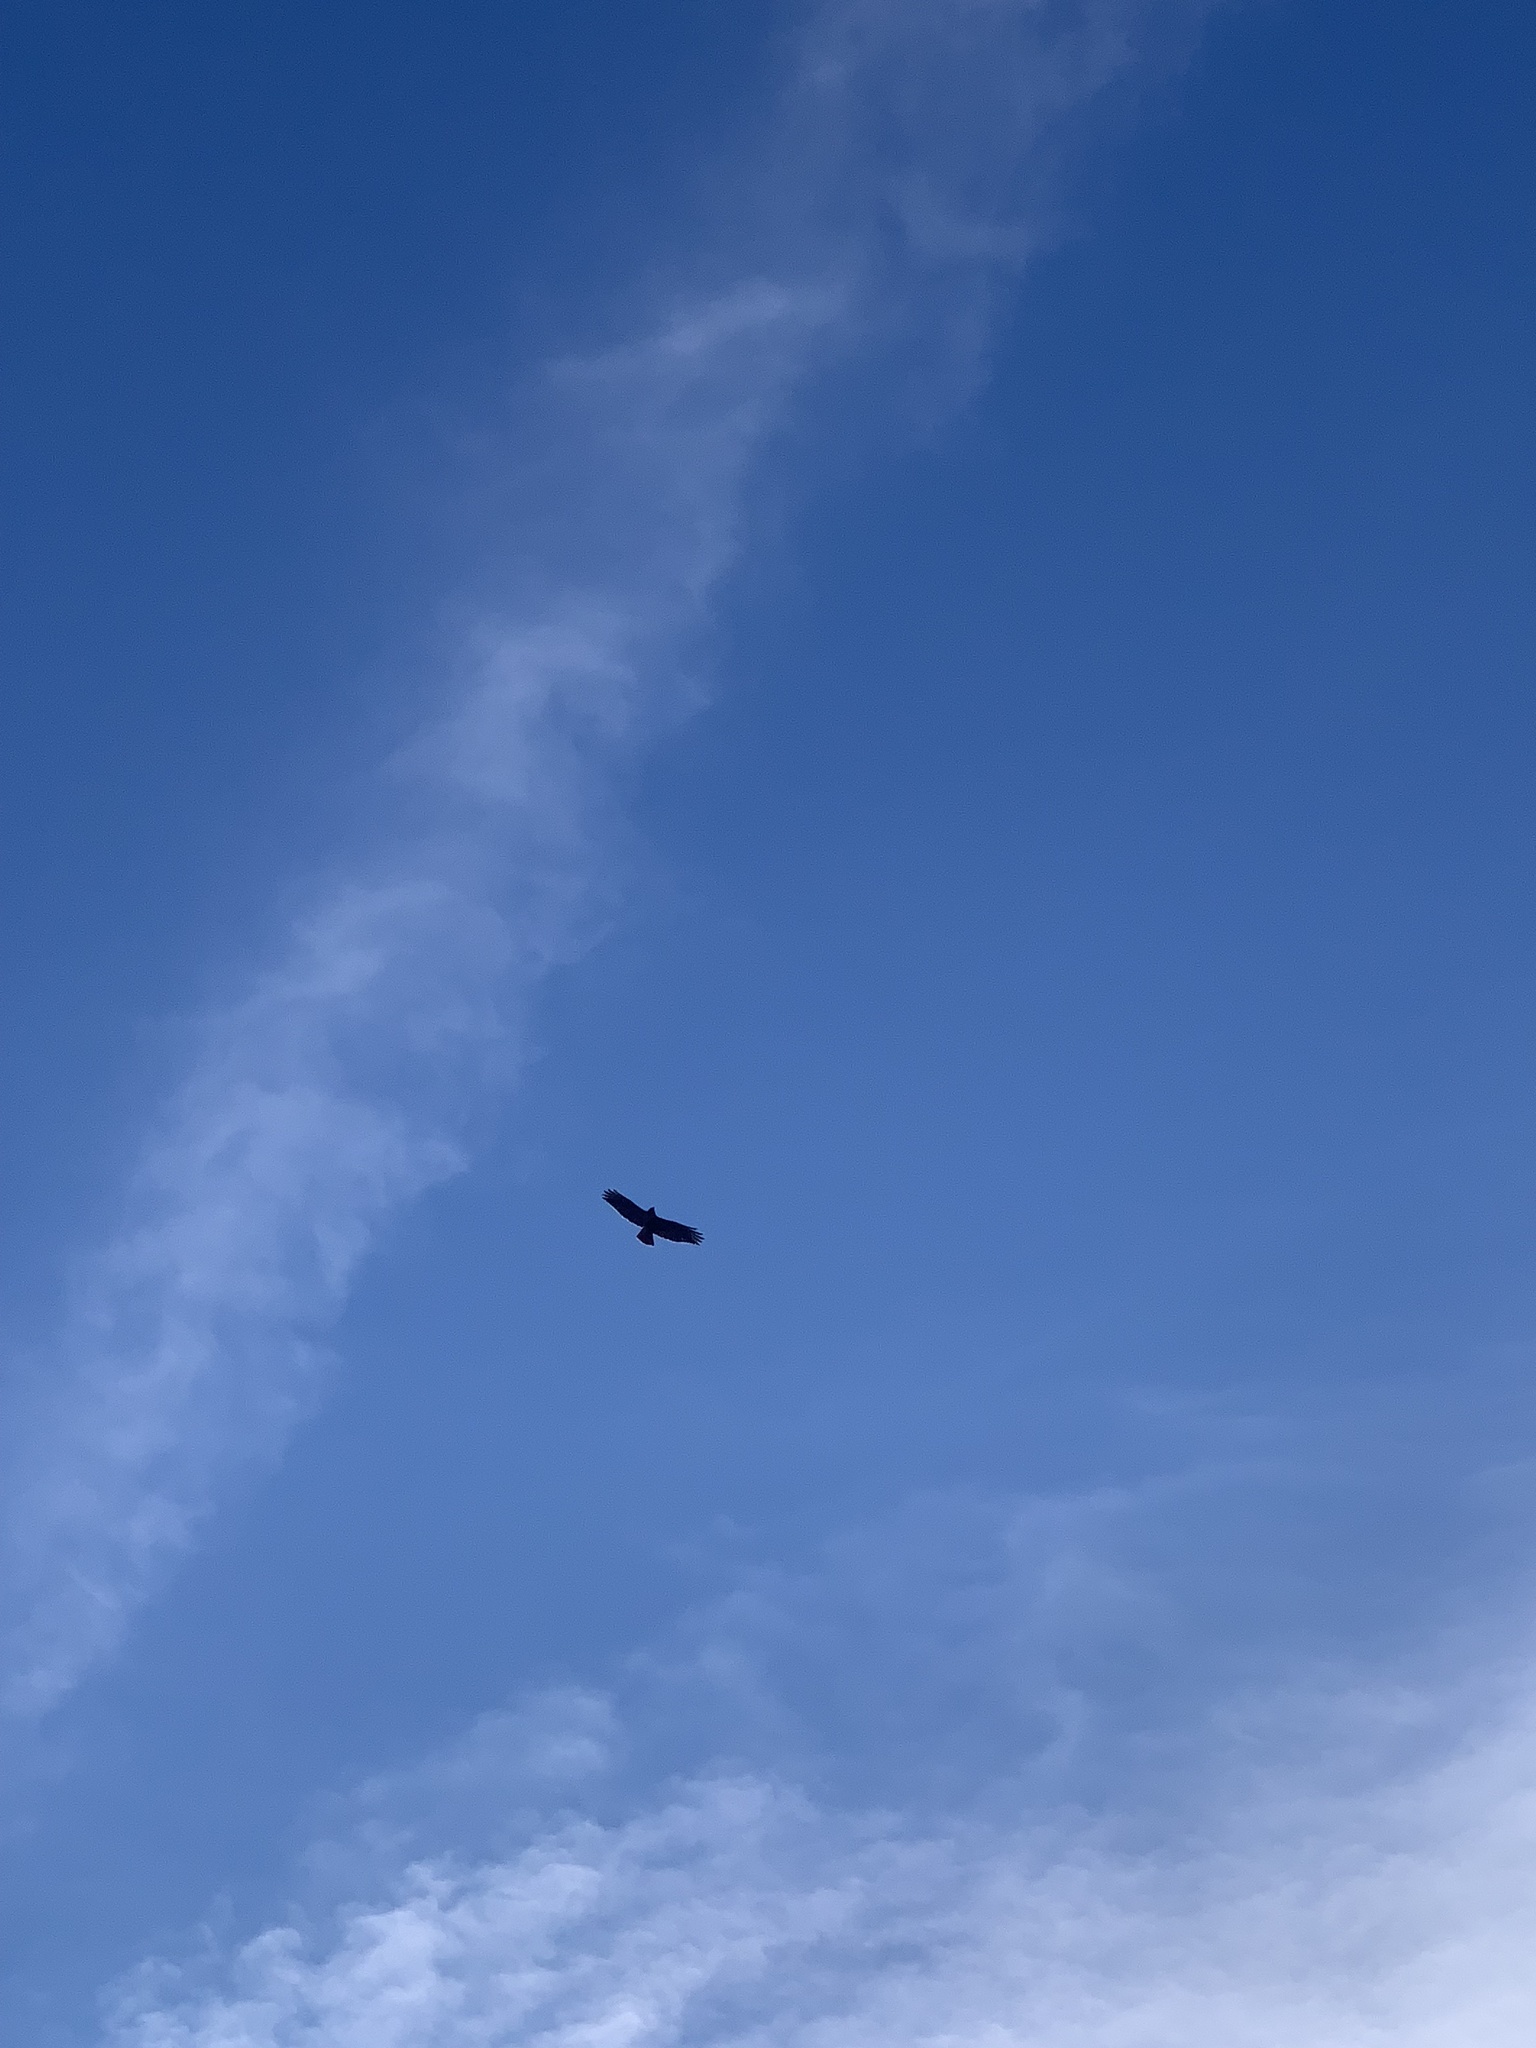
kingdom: Animalia
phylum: Chordata
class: Aves
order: Accipitriformes
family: Accipitridae
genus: Buteo
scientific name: Buteo jamaicensis
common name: Red-tailed hawk
